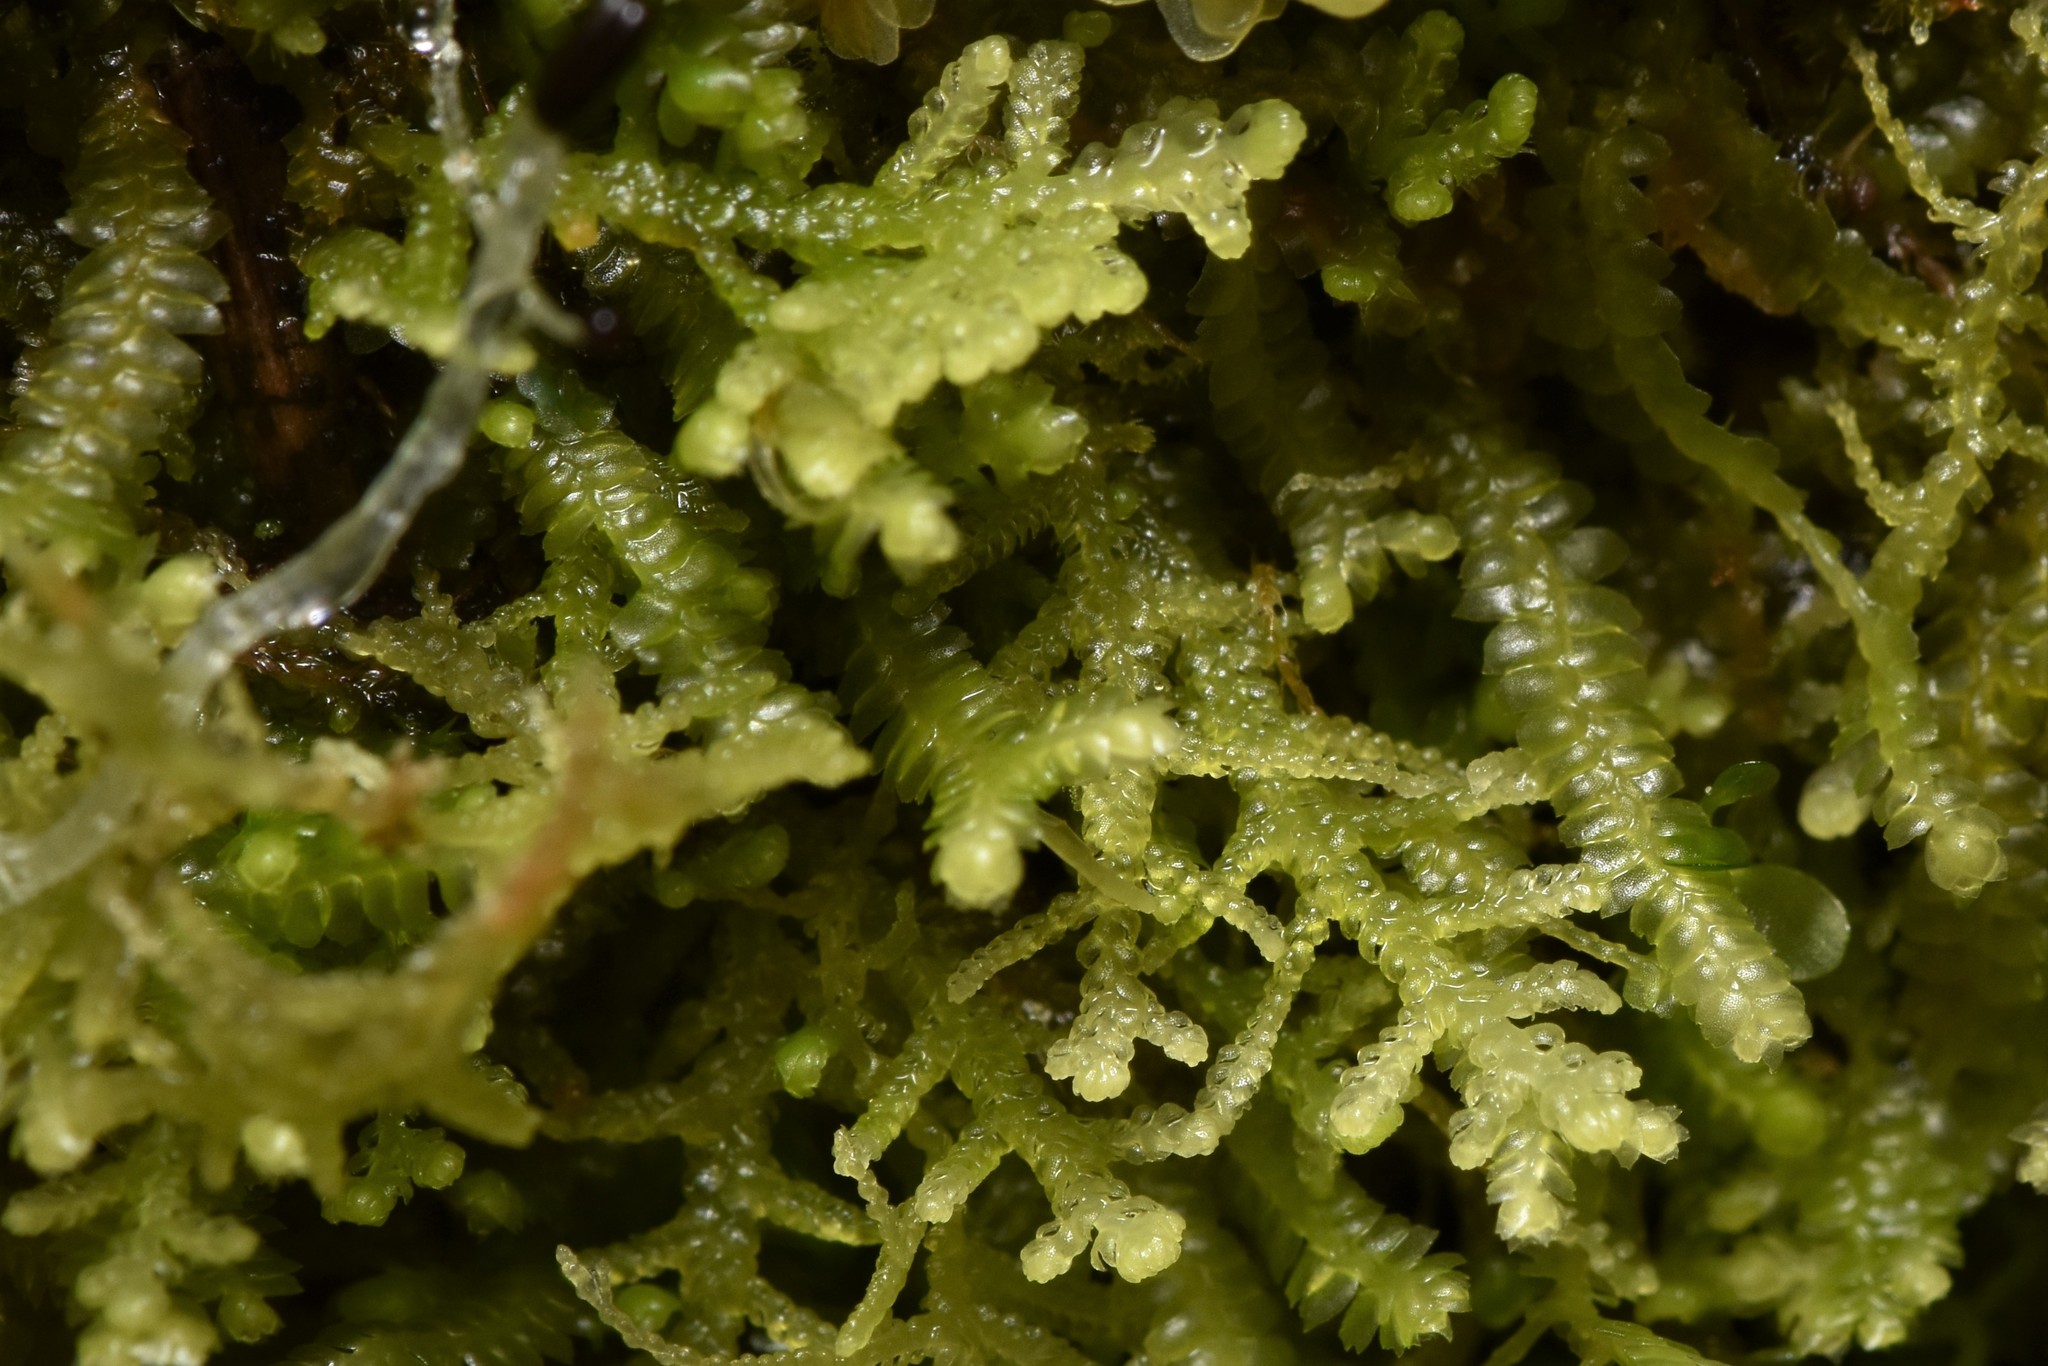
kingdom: Plantae
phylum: Marchantiophyta
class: Jungermanniopsida
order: Jungermanniales
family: Lepidoziaceae
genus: Lepidozia
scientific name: Lepidozia reptans
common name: Creeping fingerwort
